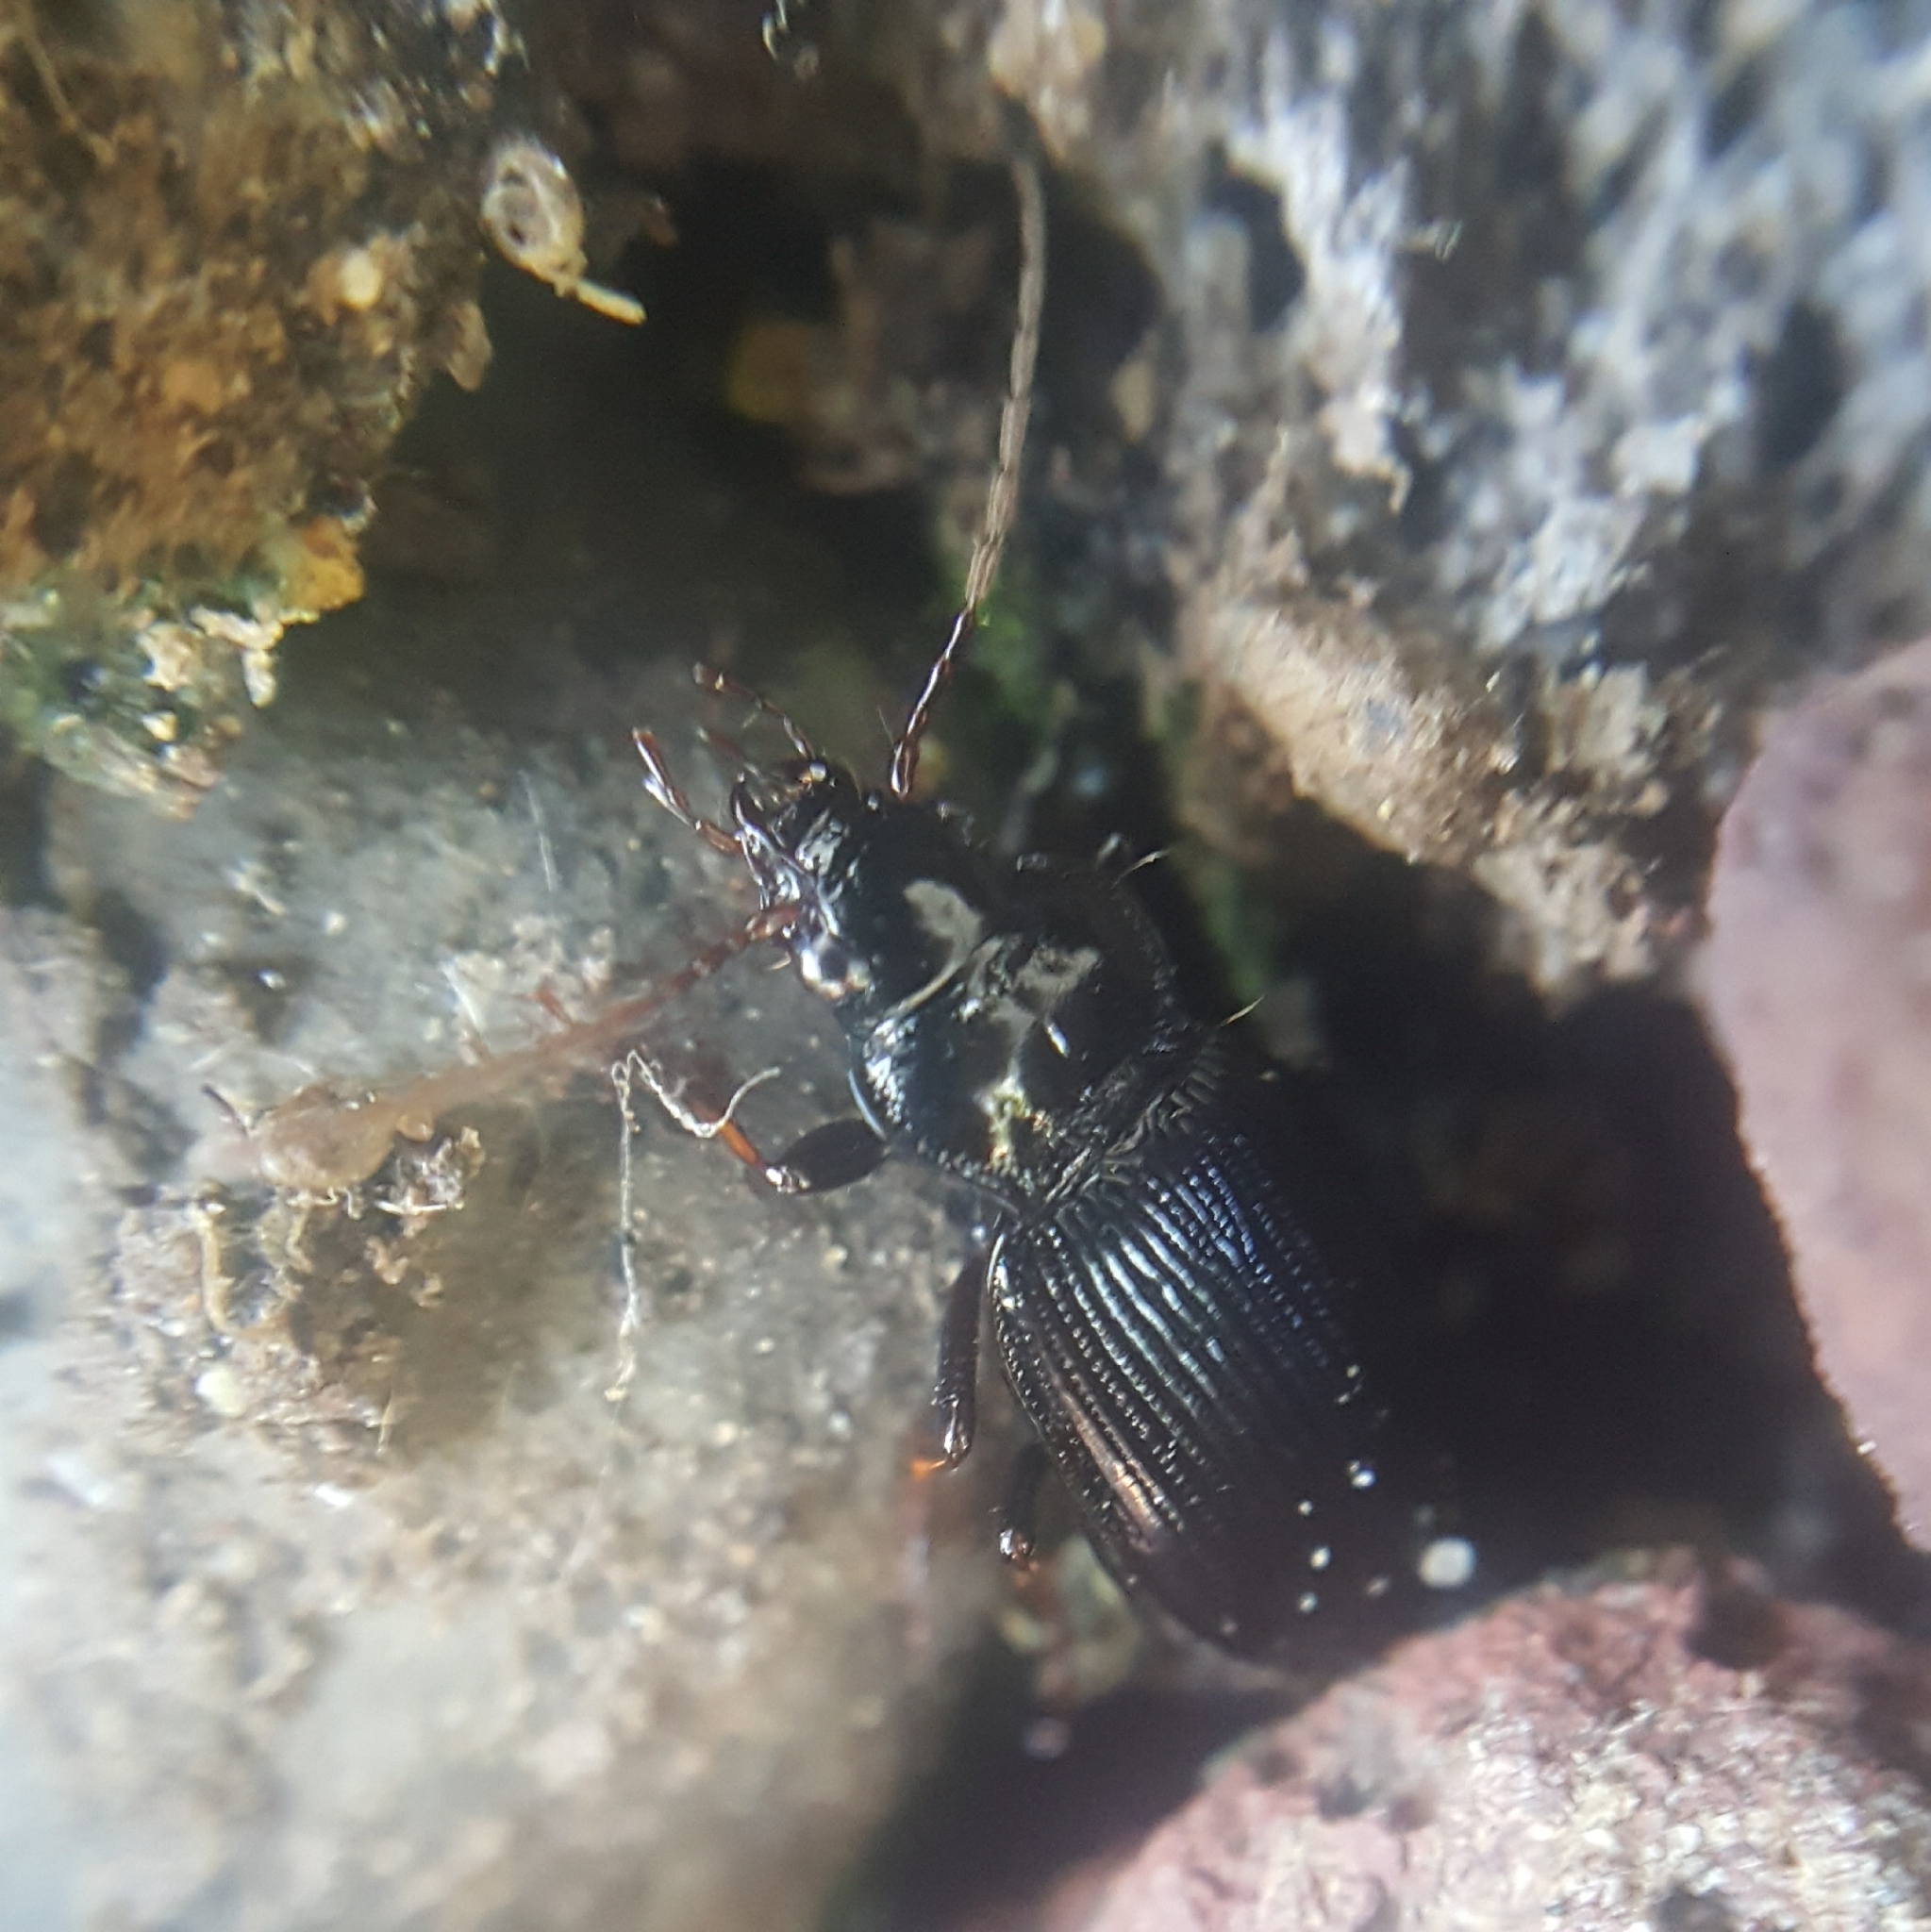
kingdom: Animalia
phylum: Arthropoda
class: Insecta
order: Coleoptera
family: Carabidae
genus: Nebria
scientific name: Nebria brevicollis
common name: Short-necked gazelle beetle
